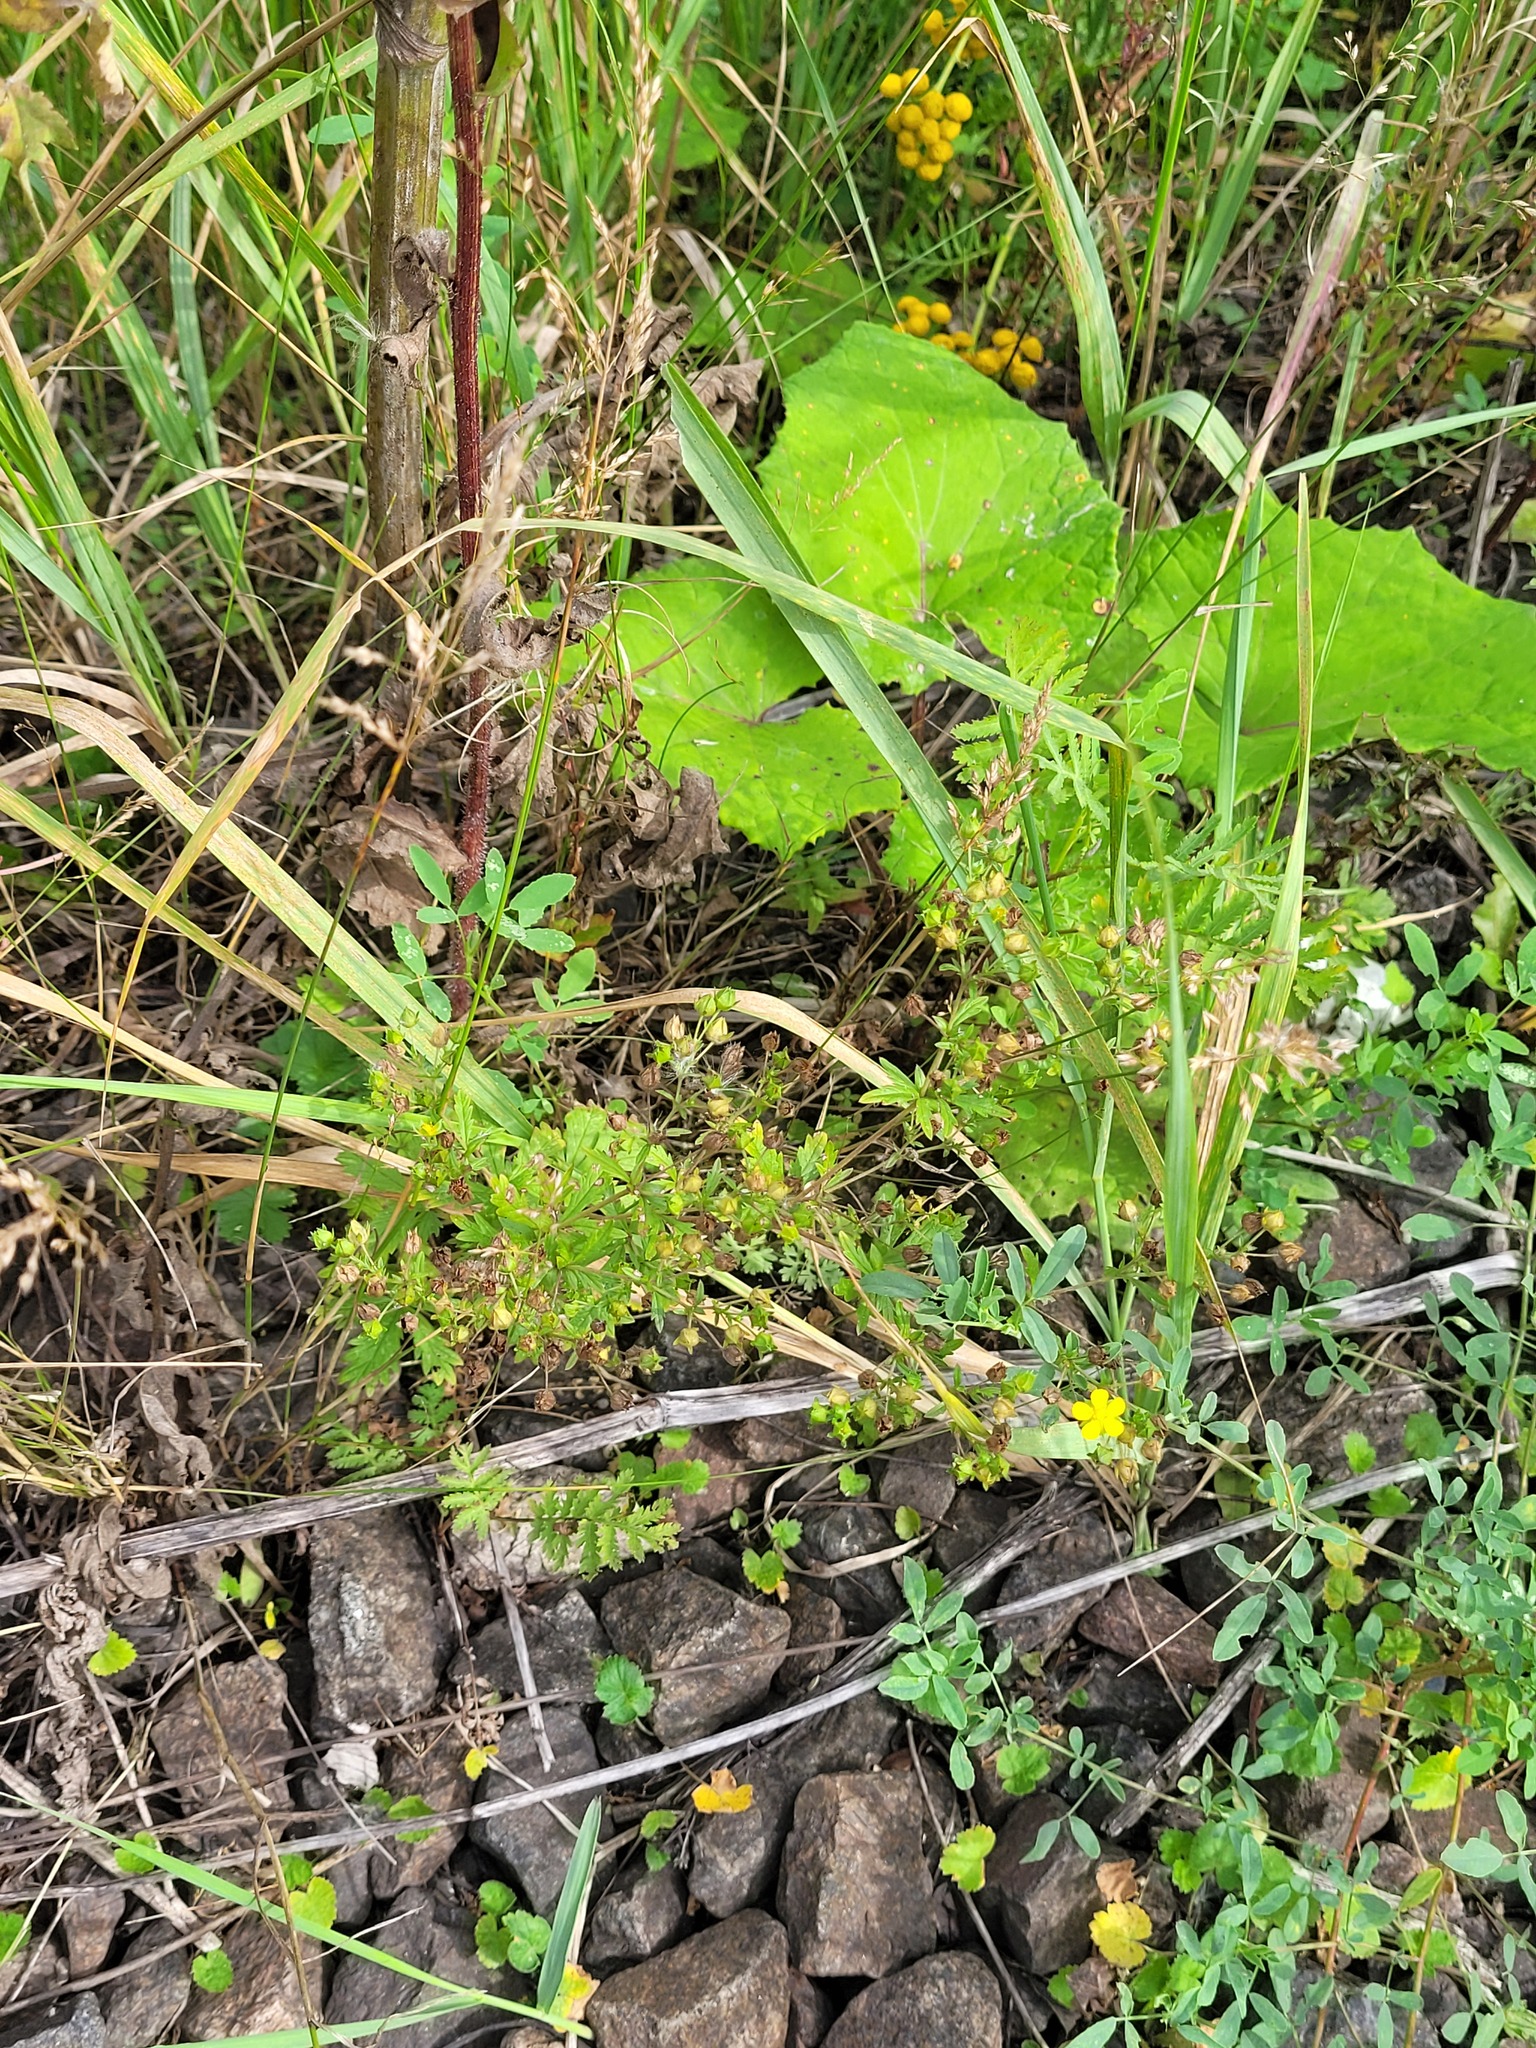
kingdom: Plantae
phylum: Tracheophyta
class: Magnoliopsida
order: Rosales
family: Rosaceae
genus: Potentilla
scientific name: Potentilla intermedia
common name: Downy cinquefoil
